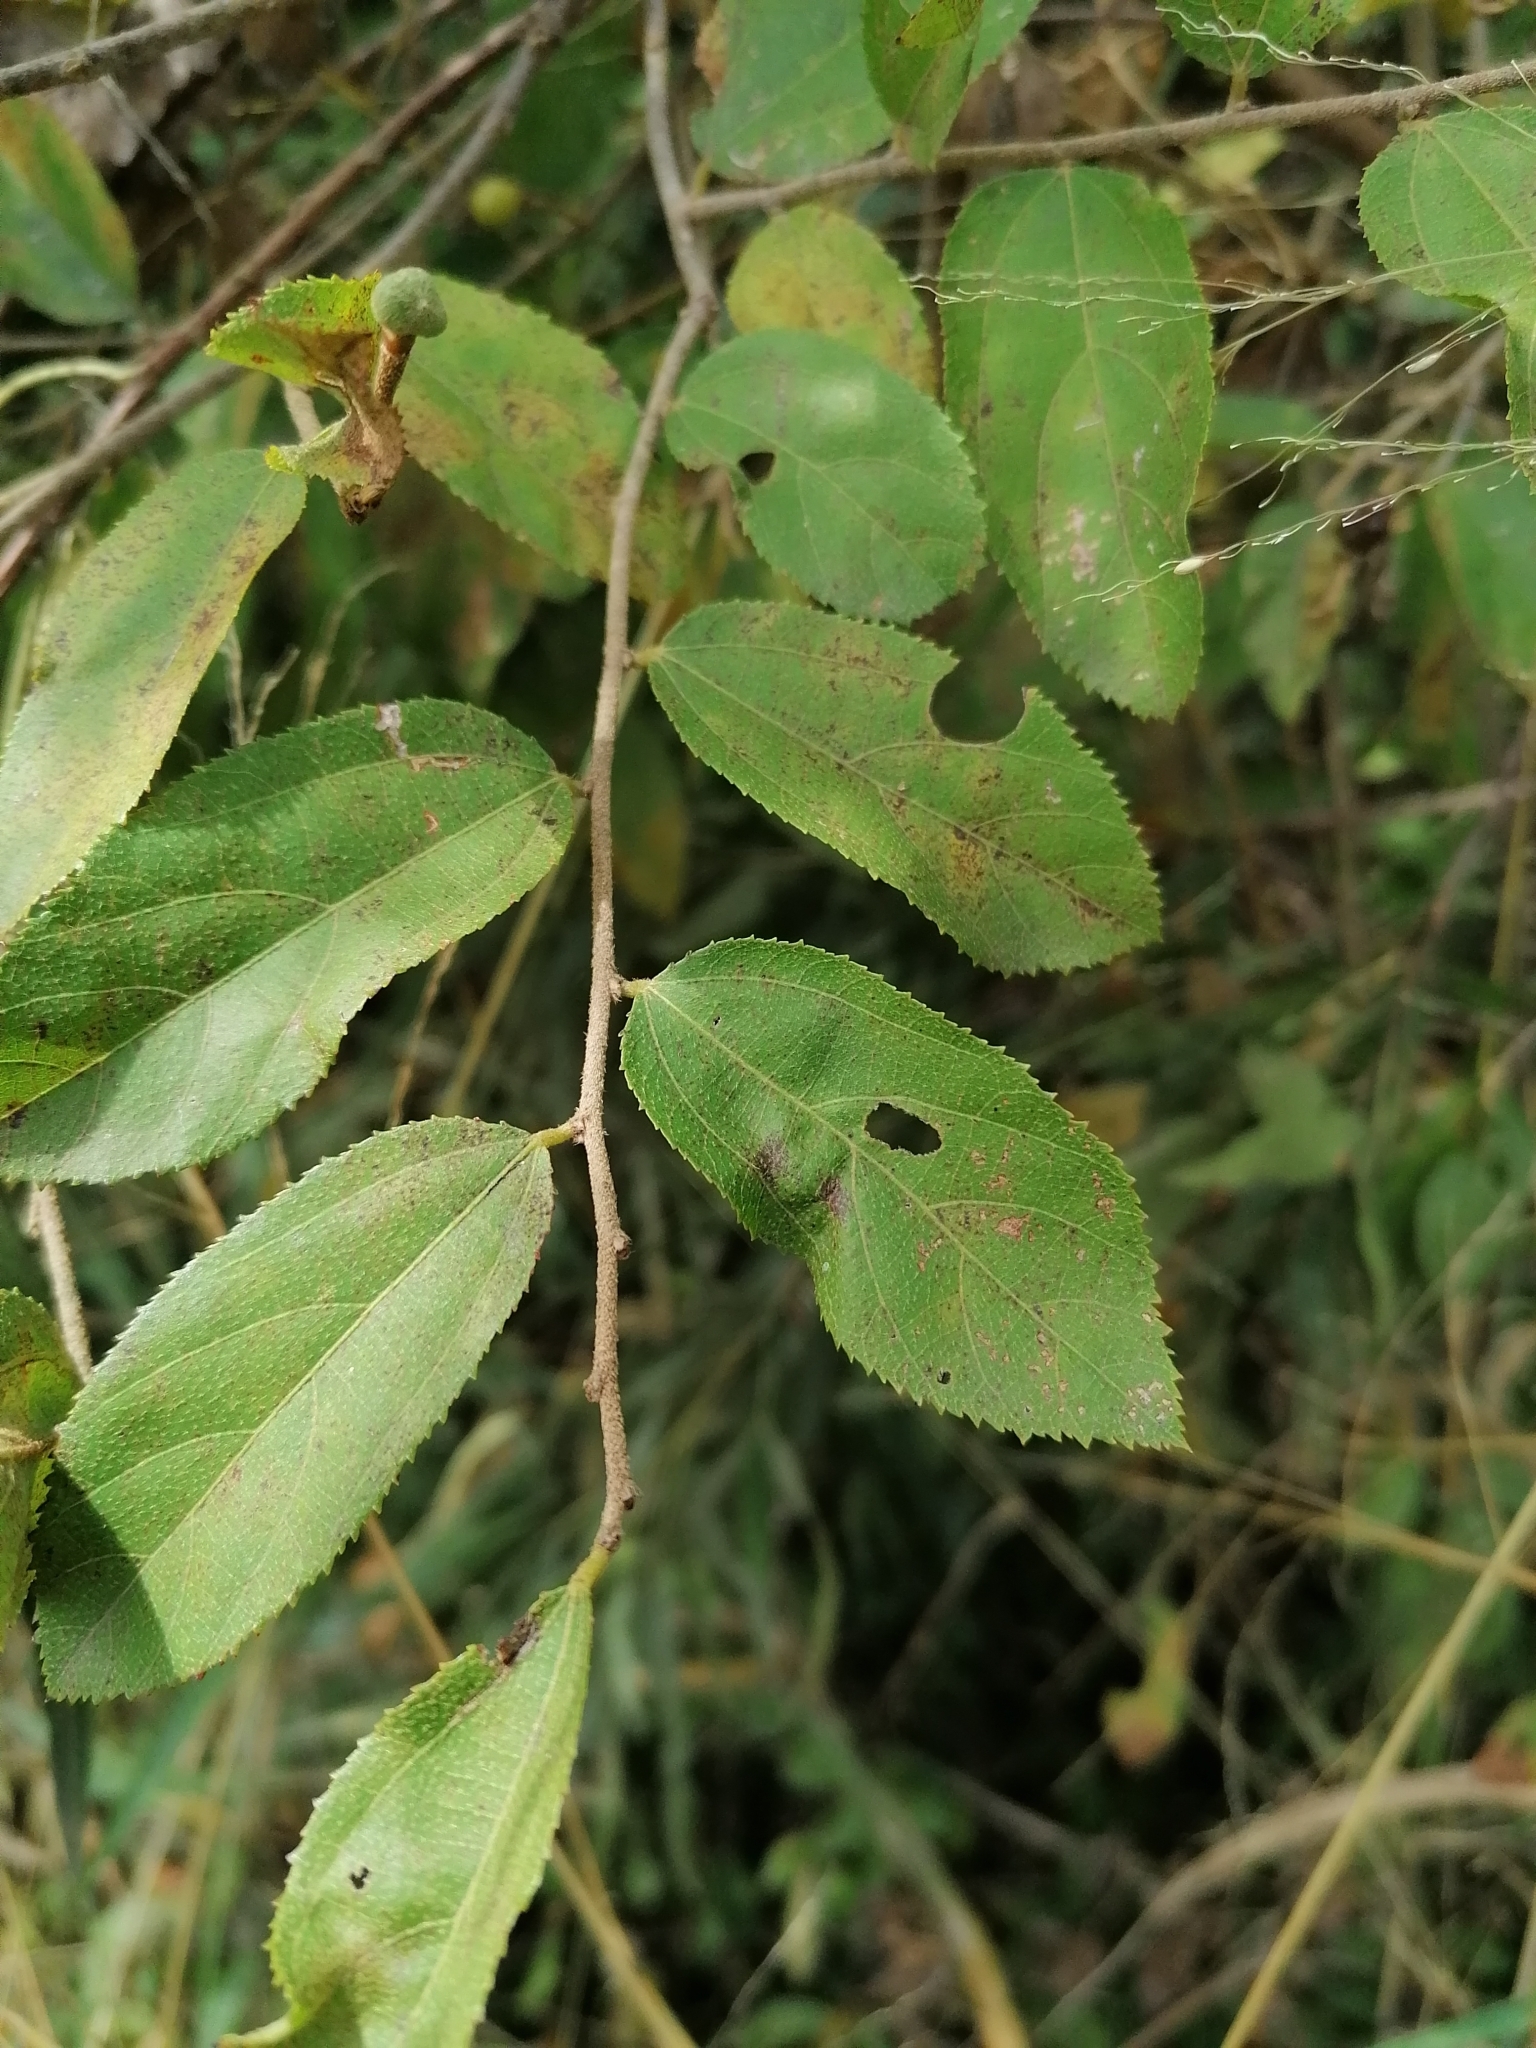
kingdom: Plantae
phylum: Tracheophyta
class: Magnoliopsida
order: Malvales
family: Malvaceae
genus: Grewia
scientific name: Grewia occidentalis
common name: Crossberry
